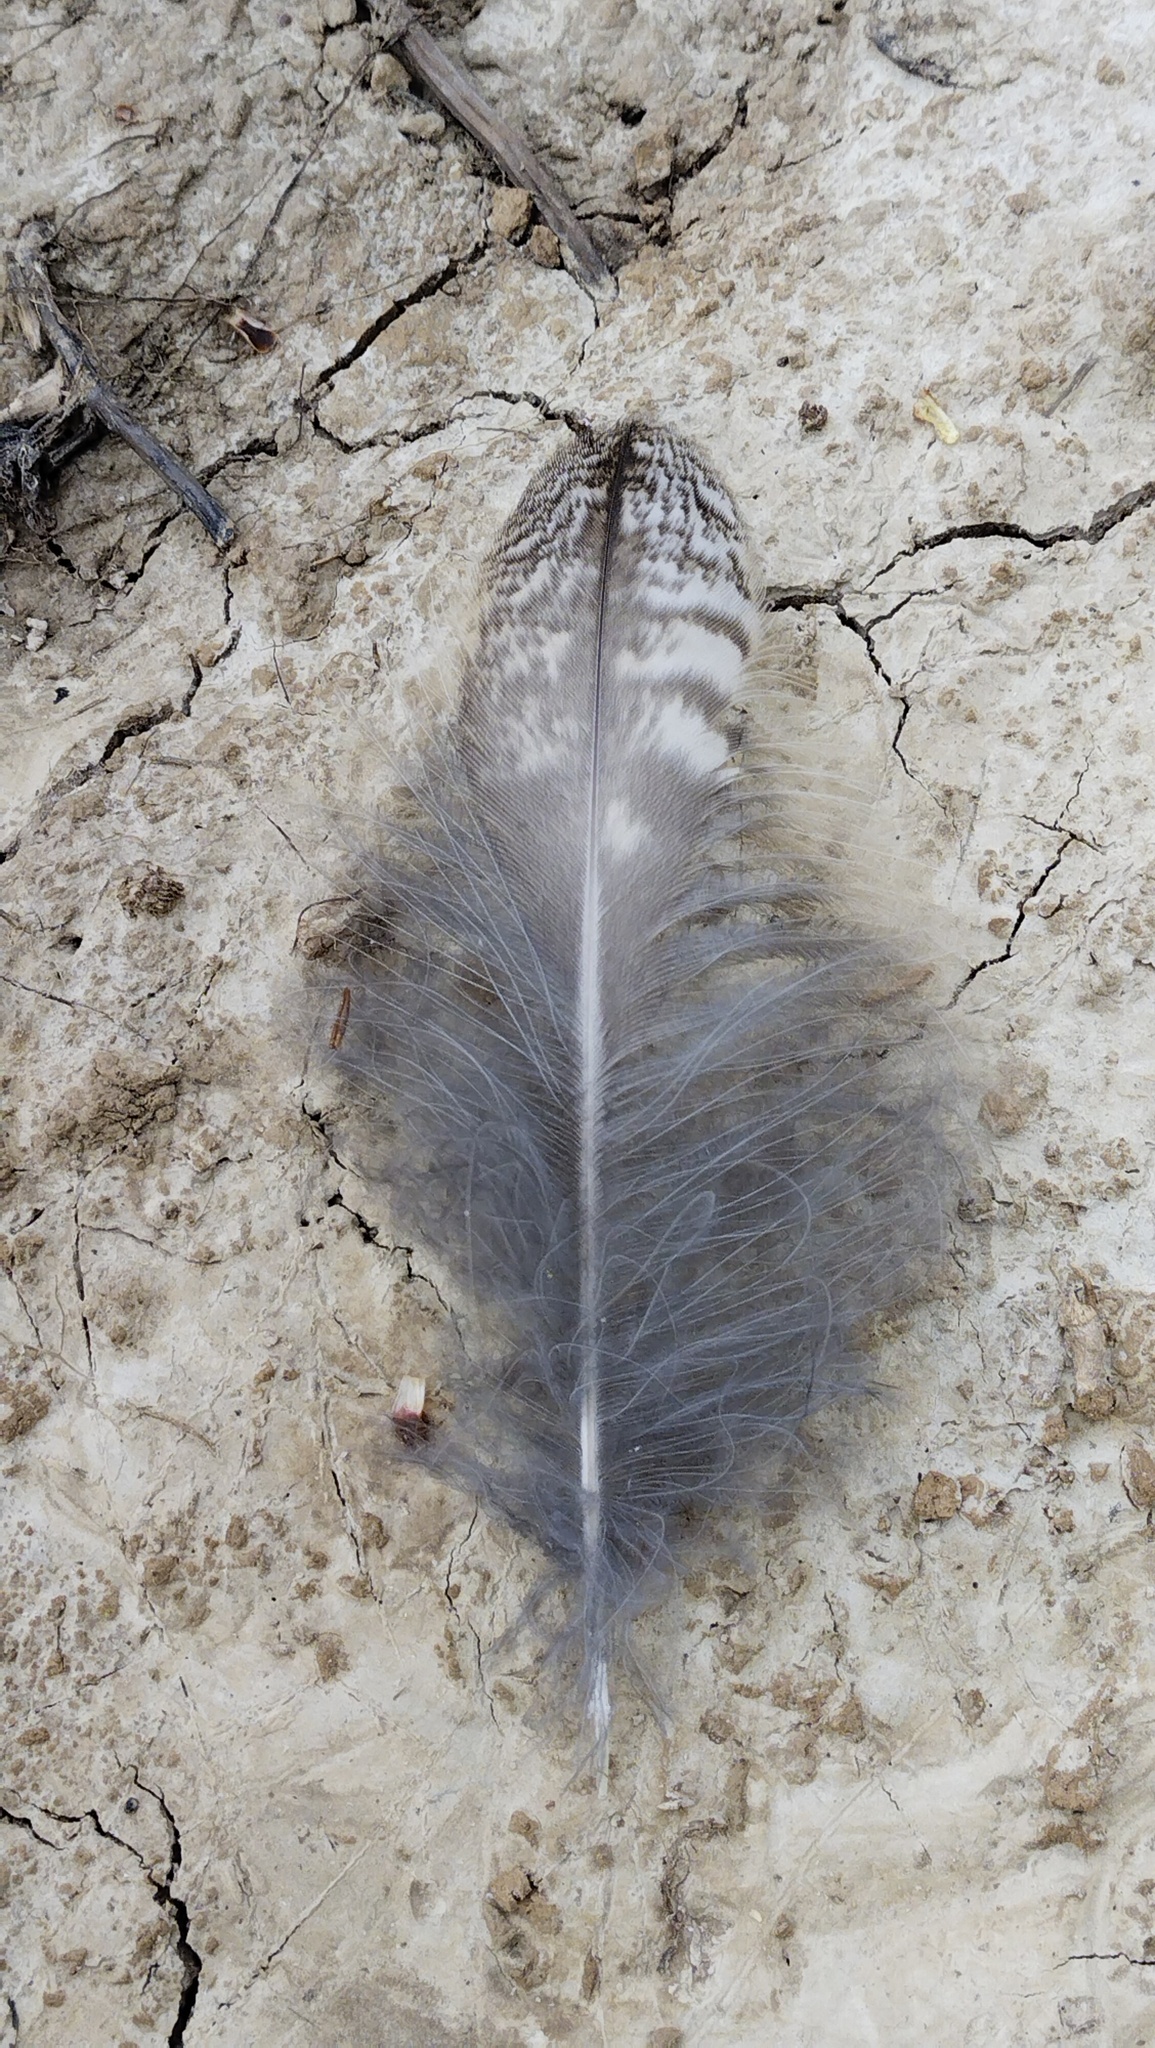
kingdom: Animalia
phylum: Chordata
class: Aves
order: Strigiformes
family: Strigidae
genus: Strix
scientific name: Strix aluco
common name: Tawny owl
